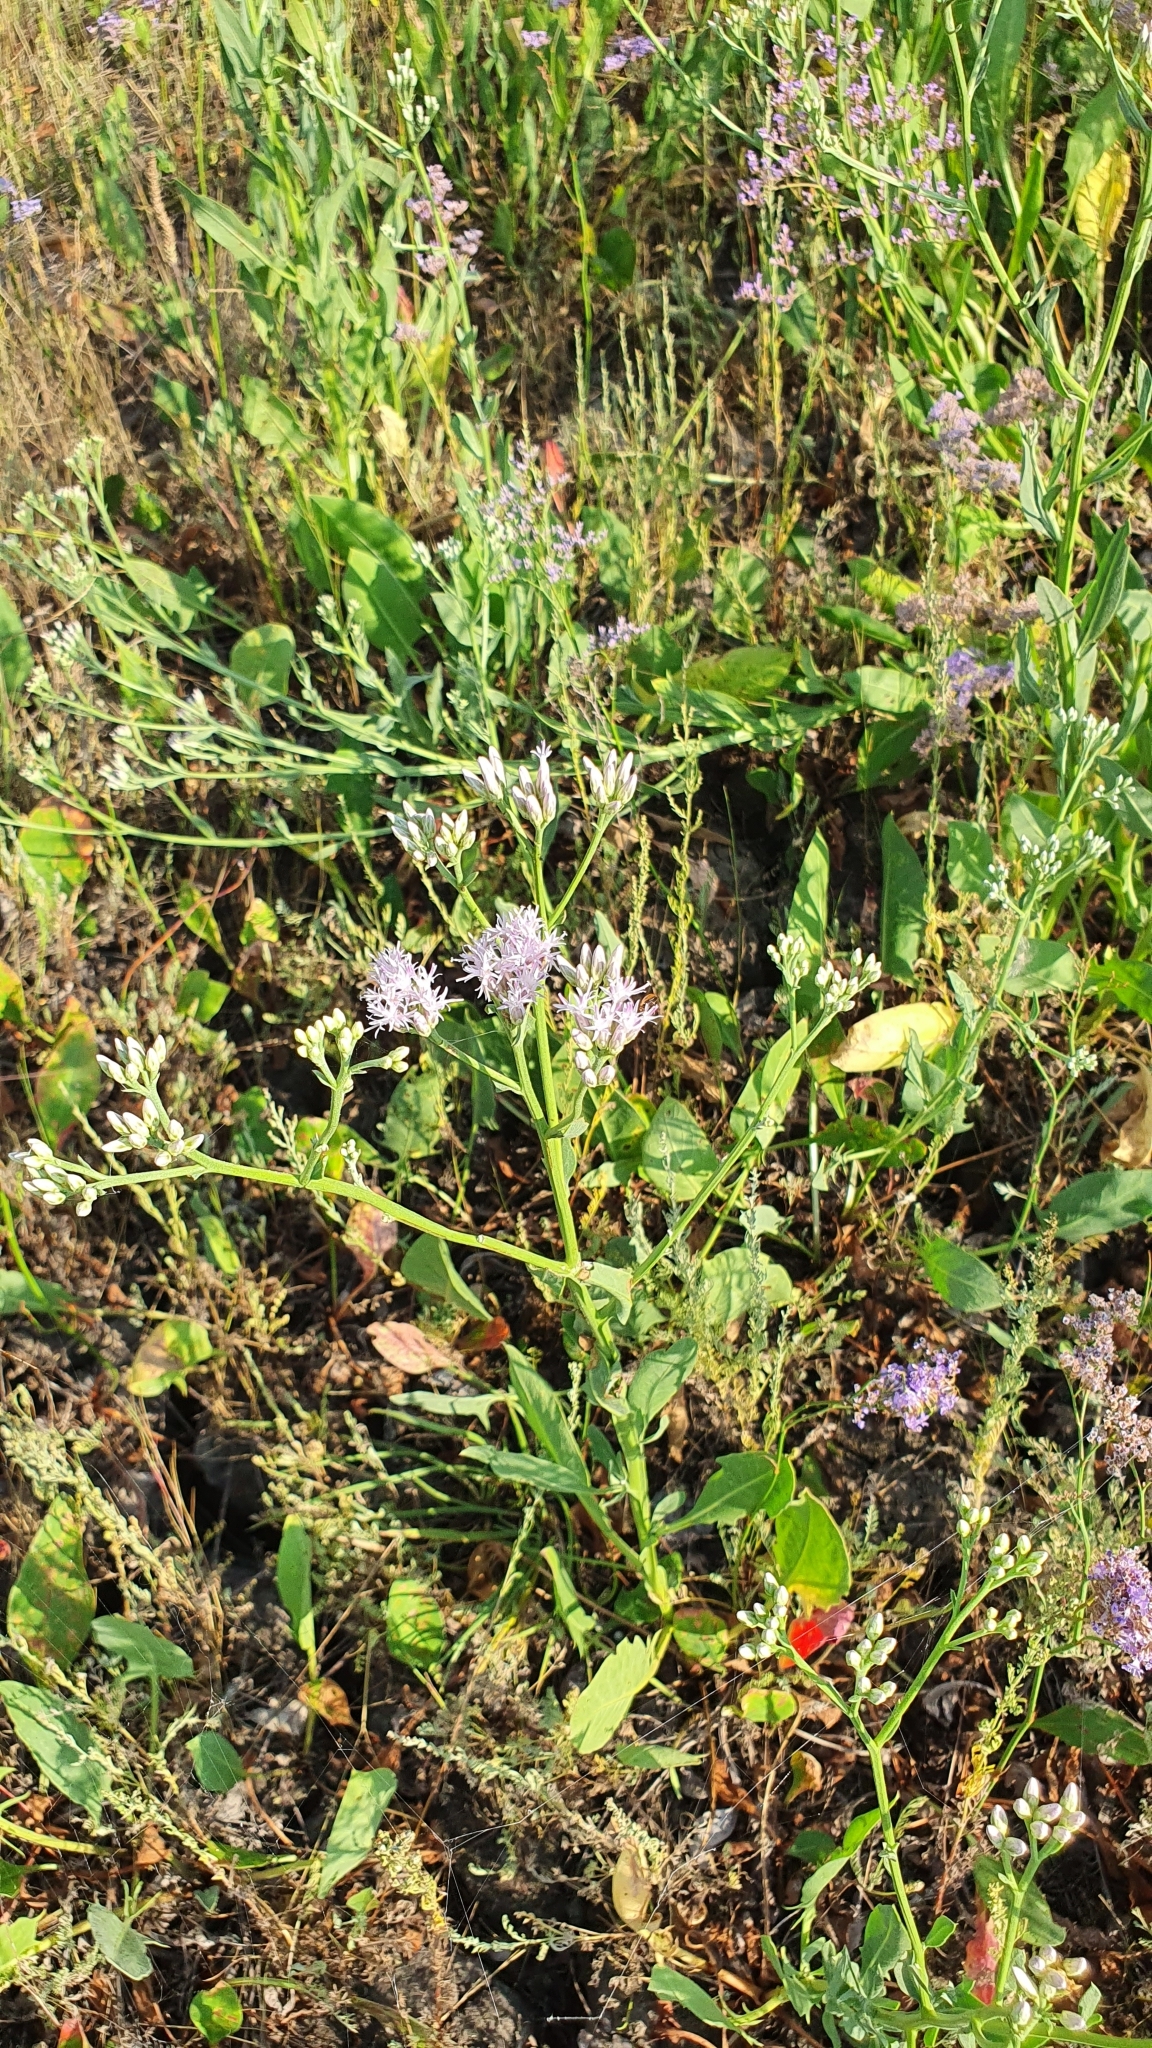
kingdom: Plantae
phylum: Tracheophyta
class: Magnoliopsida
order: Asterales
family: Asteraceae
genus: Saussurea
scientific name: Saussurea salsa
